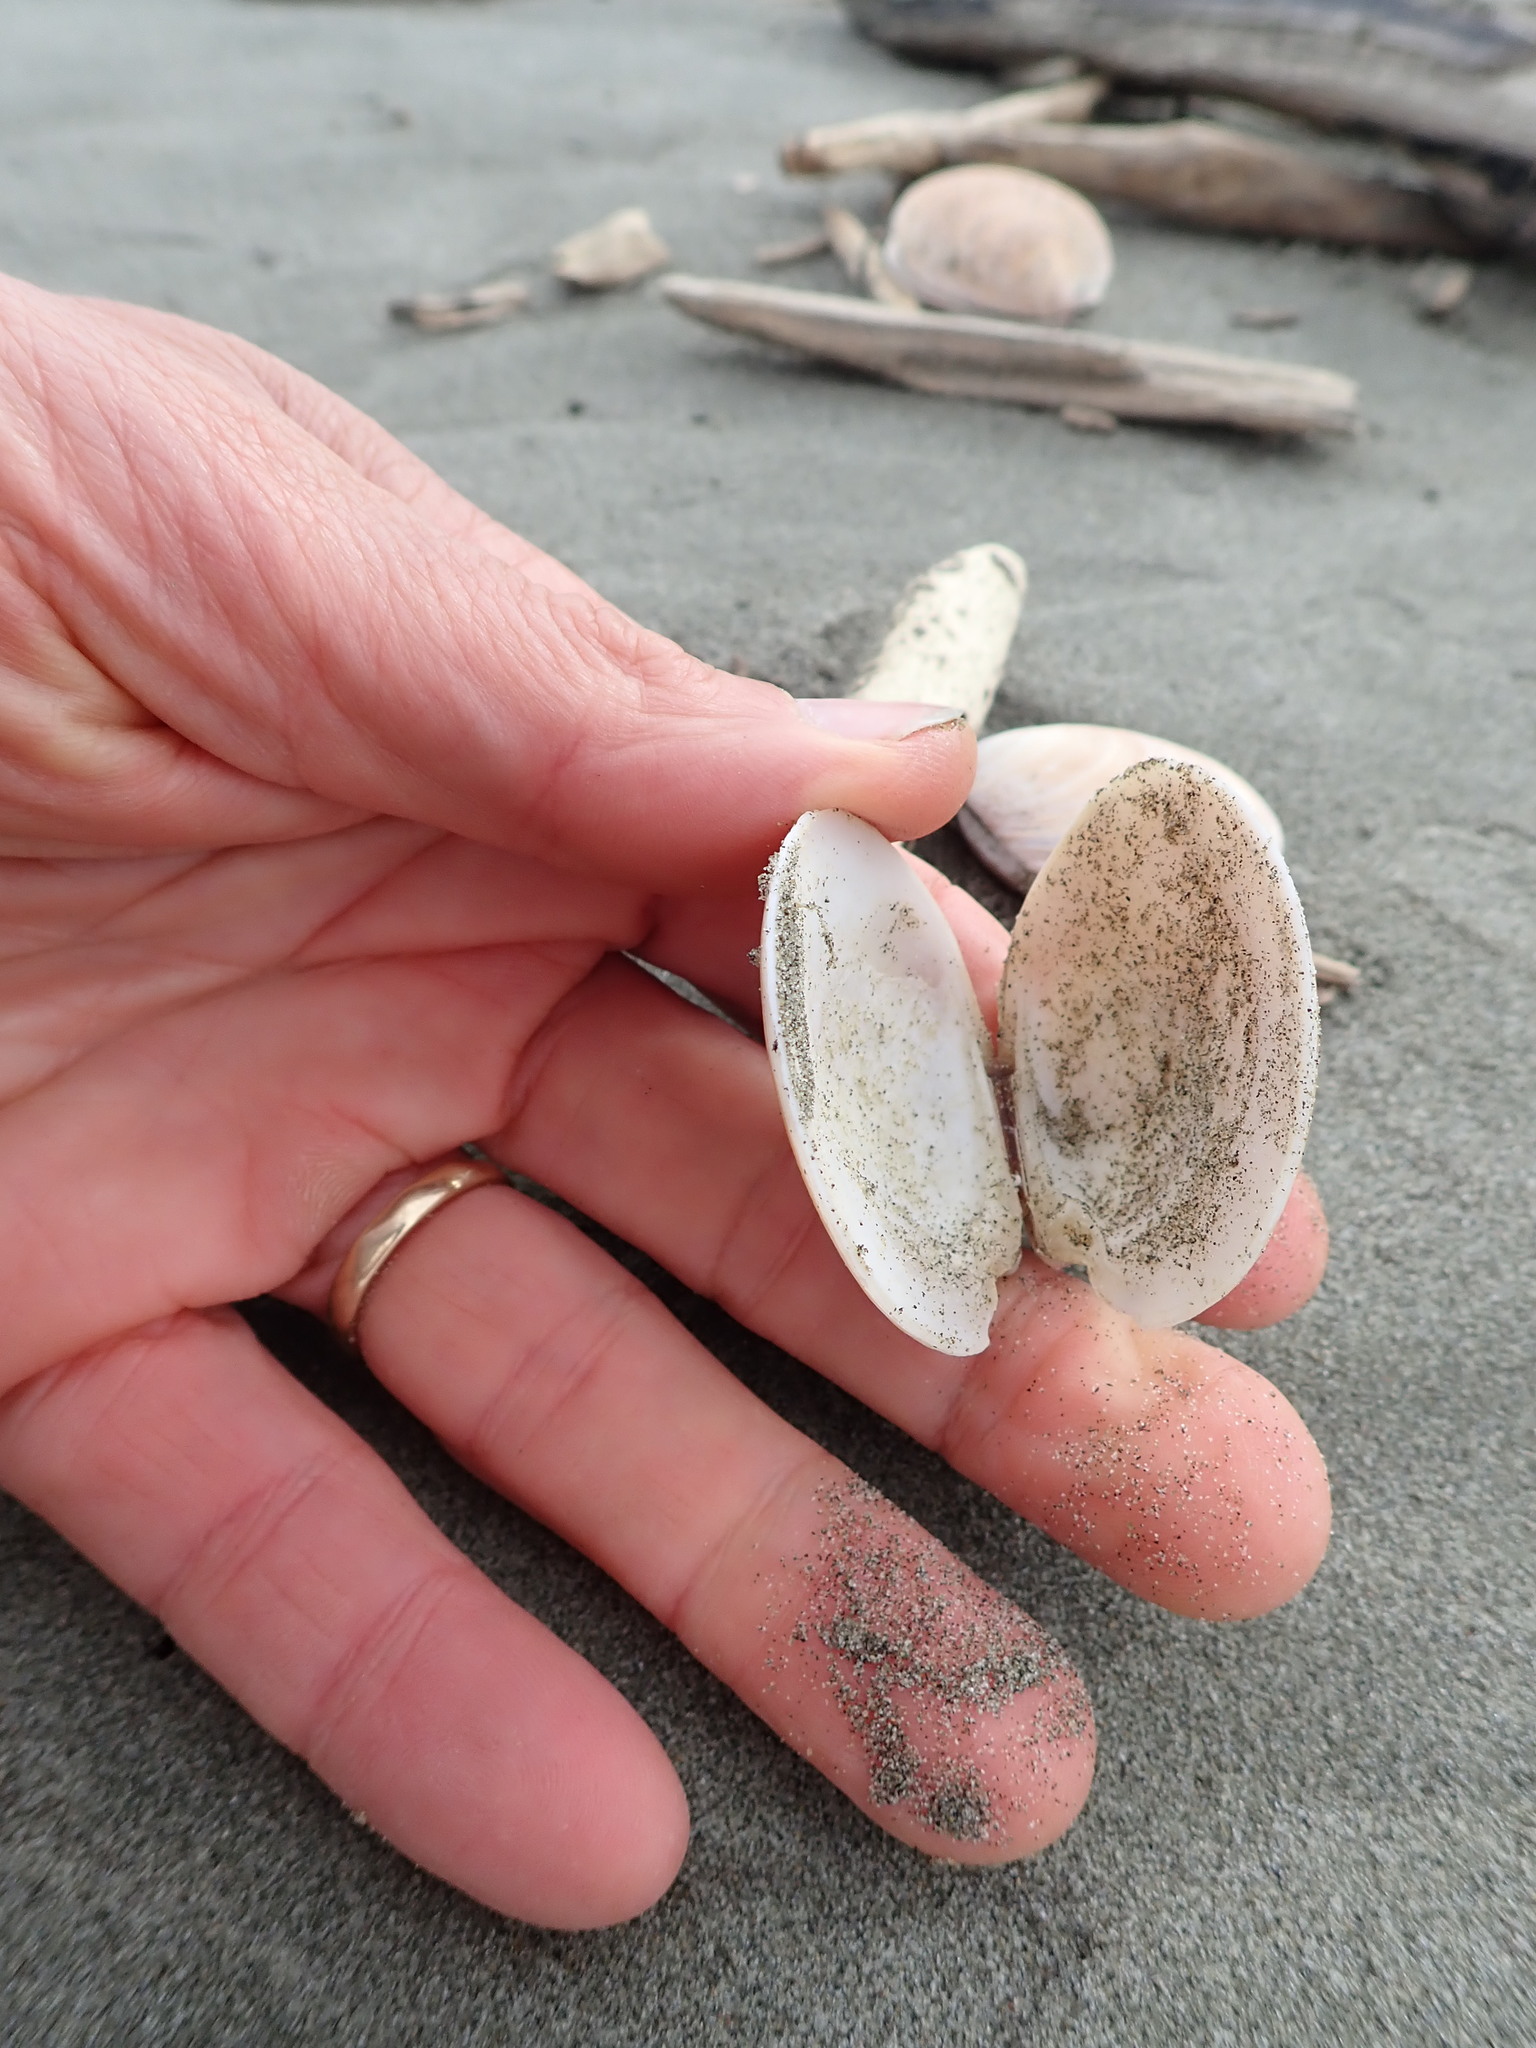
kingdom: Animalia
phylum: Mollusca
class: Bivalvia
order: Venerida
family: Veneridae
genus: Dosinia
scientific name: Dosinia anus
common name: Old-woman dosinia
